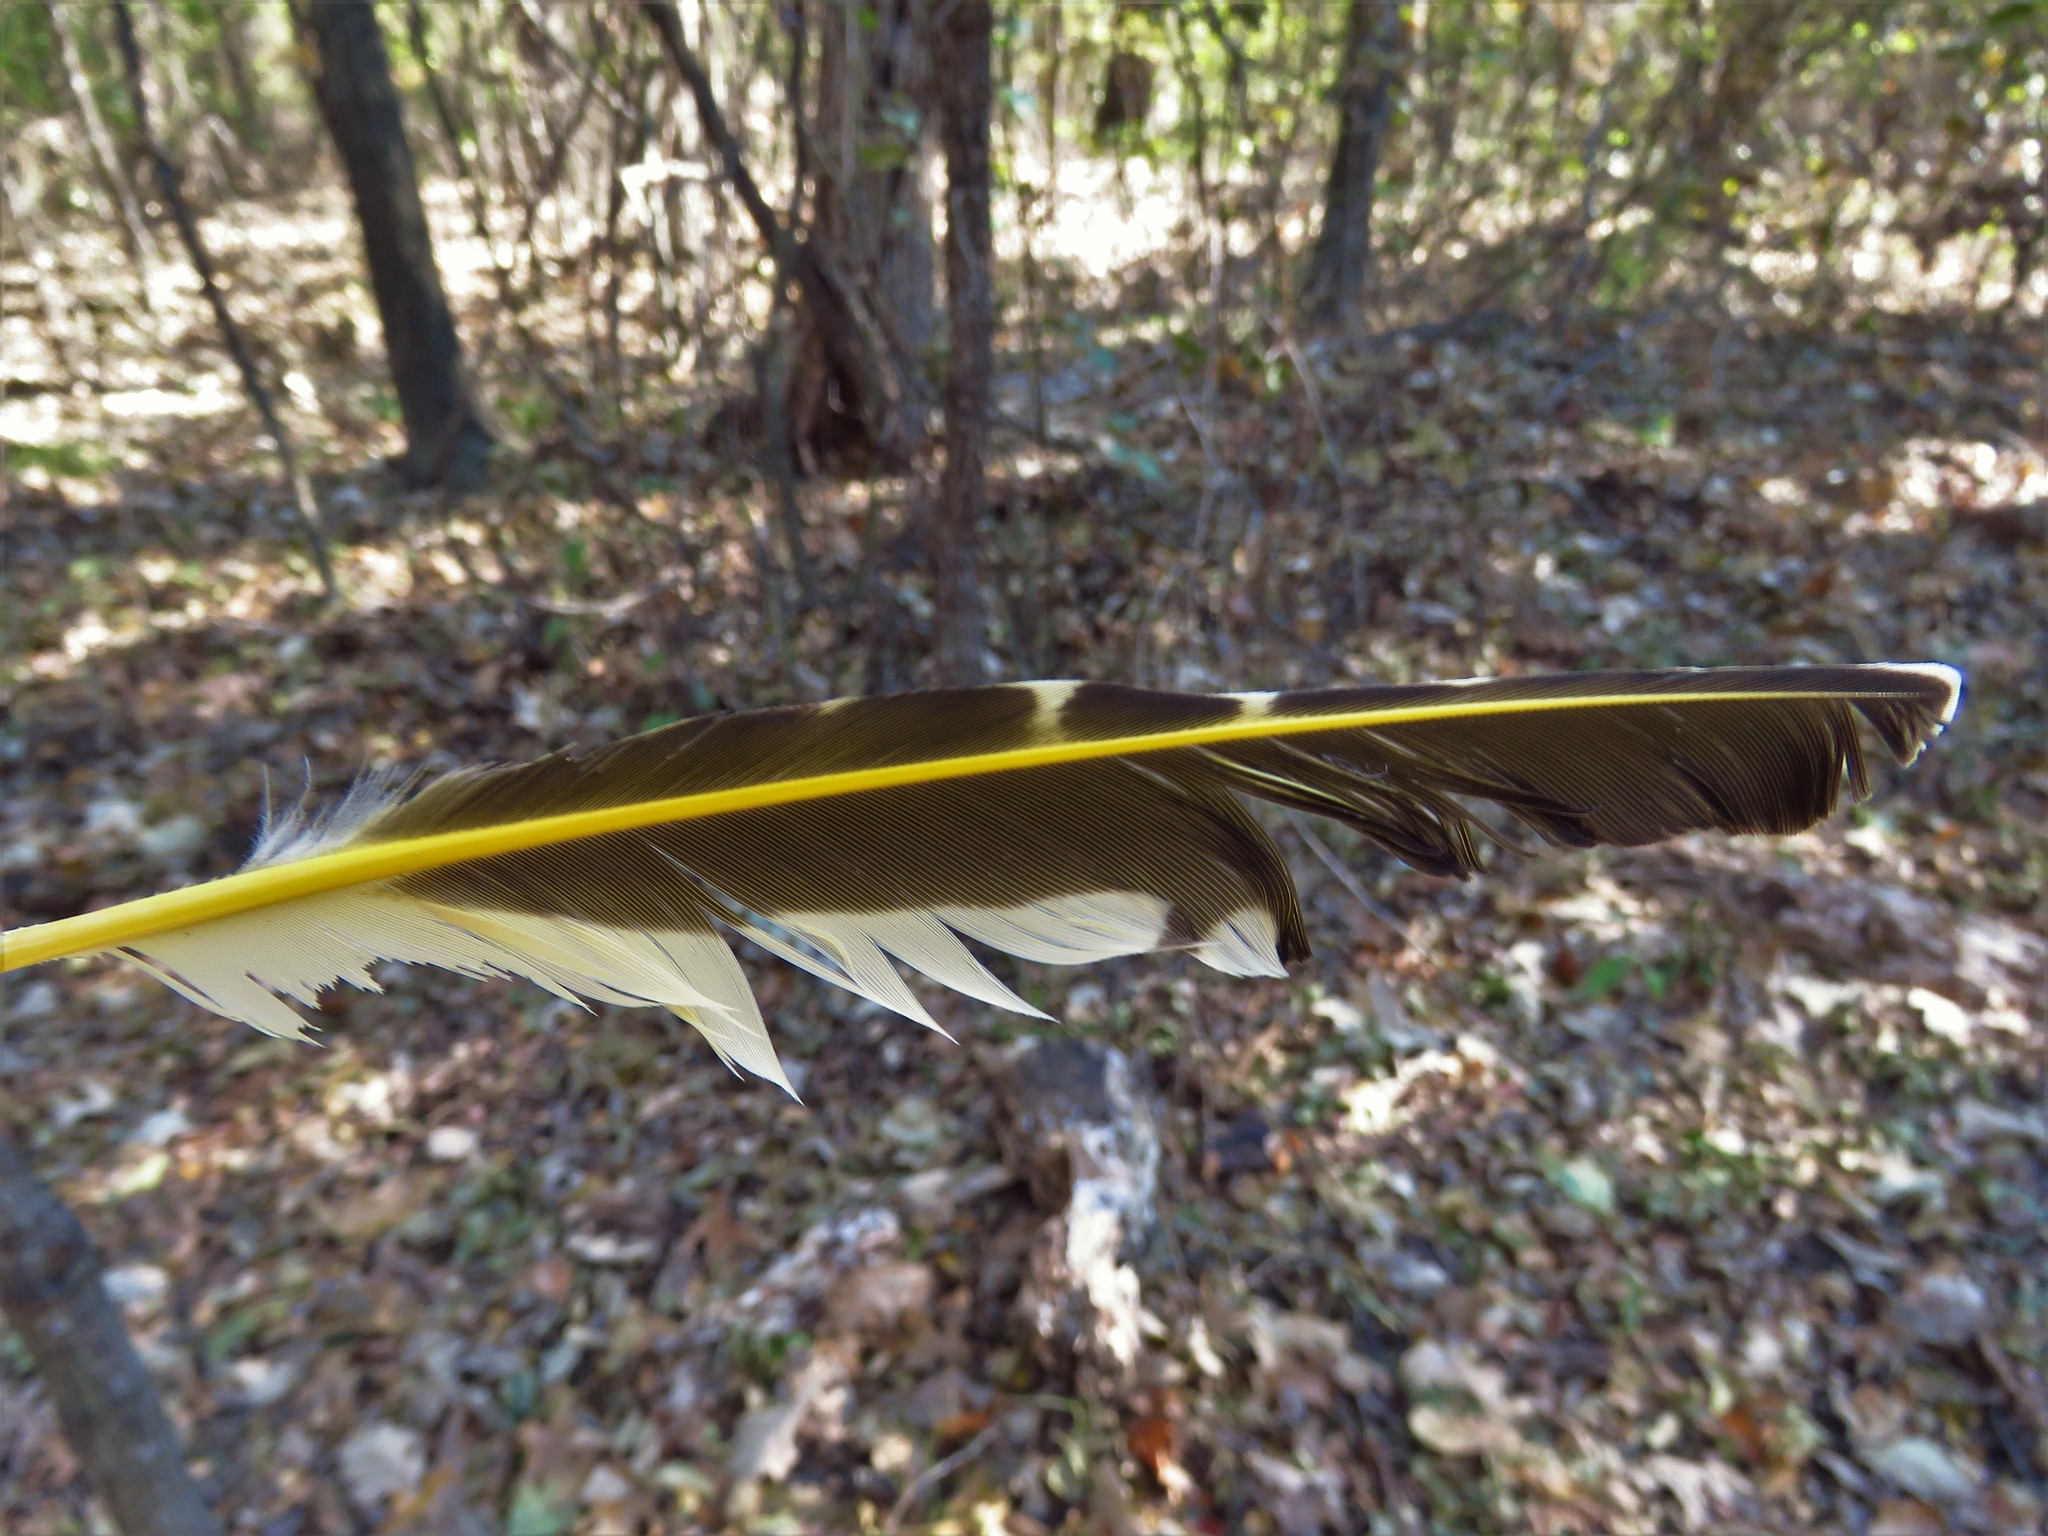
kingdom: Animalia
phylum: Chordata
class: Aves
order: Piciformes
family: Picidae
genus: Colaptes
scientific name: Colaptes auratus
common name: Northern flicker
